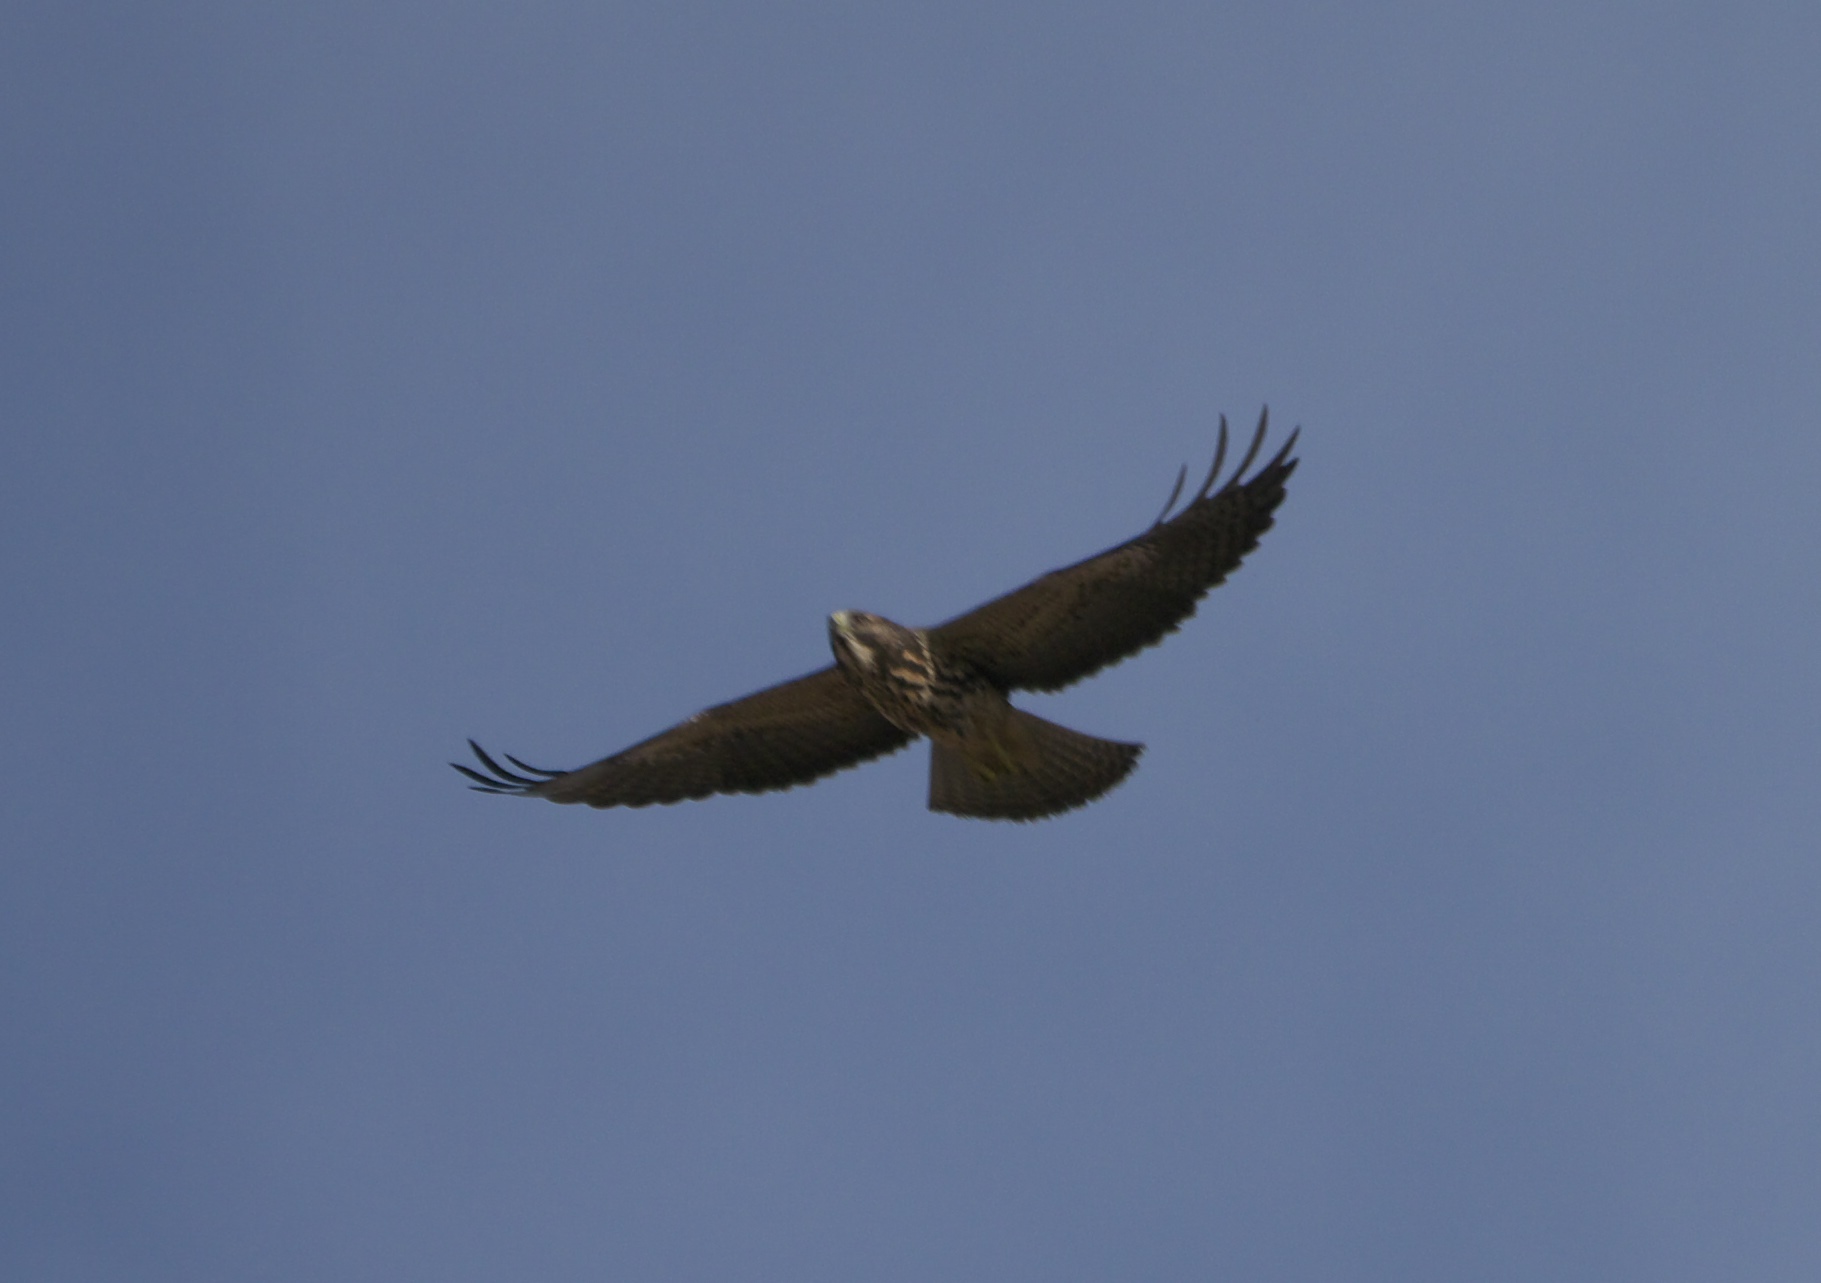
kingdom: Animalia
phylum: Chordata
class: Aves
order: Accipitriformes
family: Accipitridae
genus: Buteo
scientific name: Buteo swainsoni
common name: Swainson's hawk
